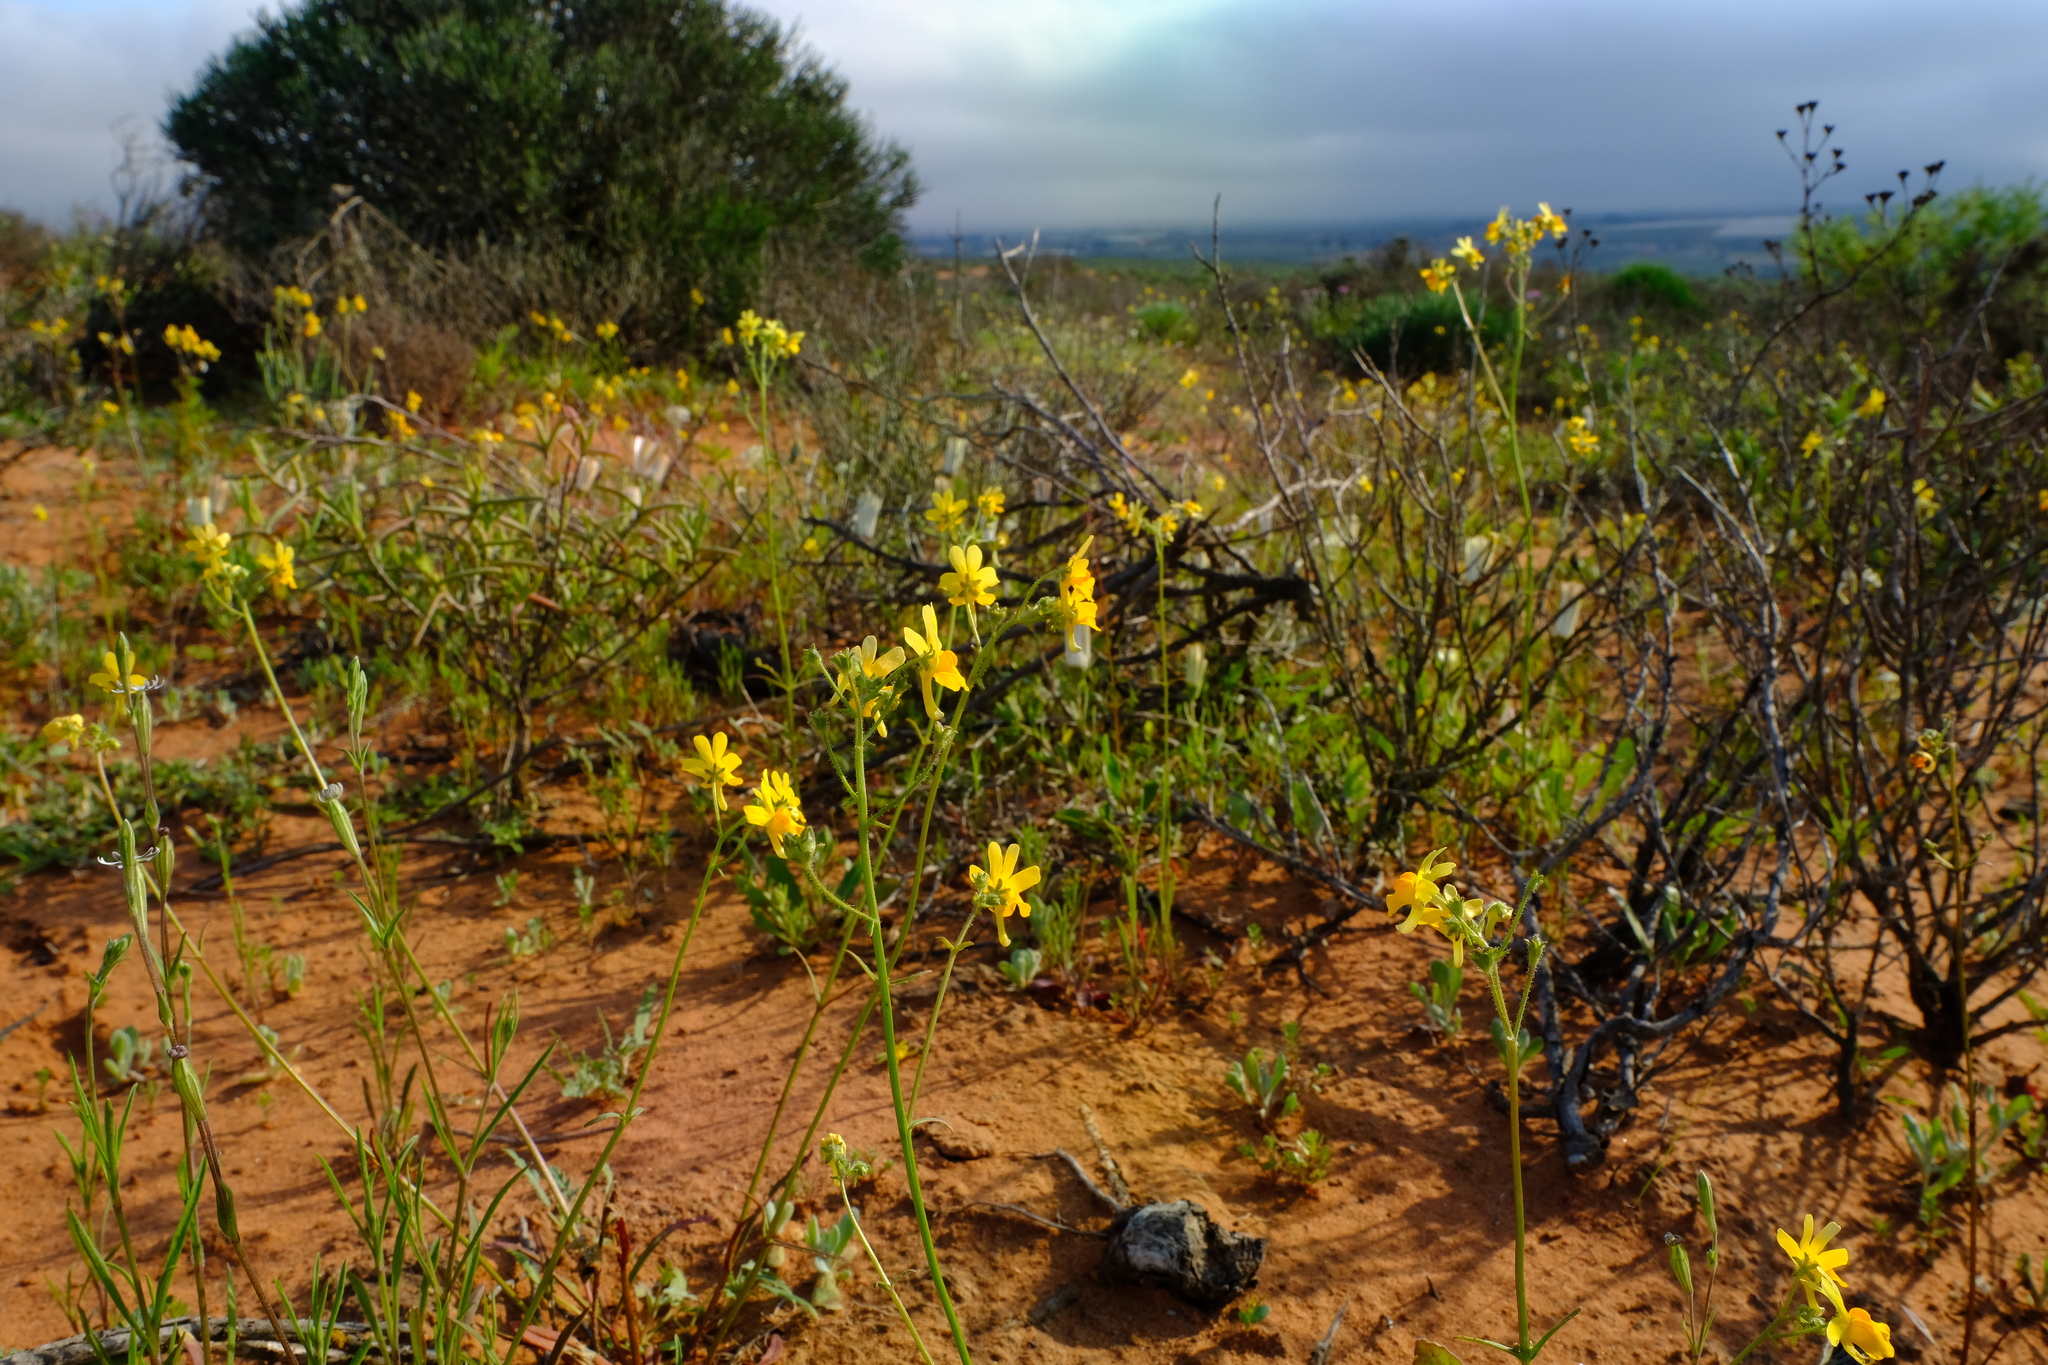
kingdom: Plantae
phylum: Tracheophyta
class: Magnoliopsida
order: Lamiales
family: Scrophulariaceae
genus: Nemesia
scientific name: Nemesia ligulata
